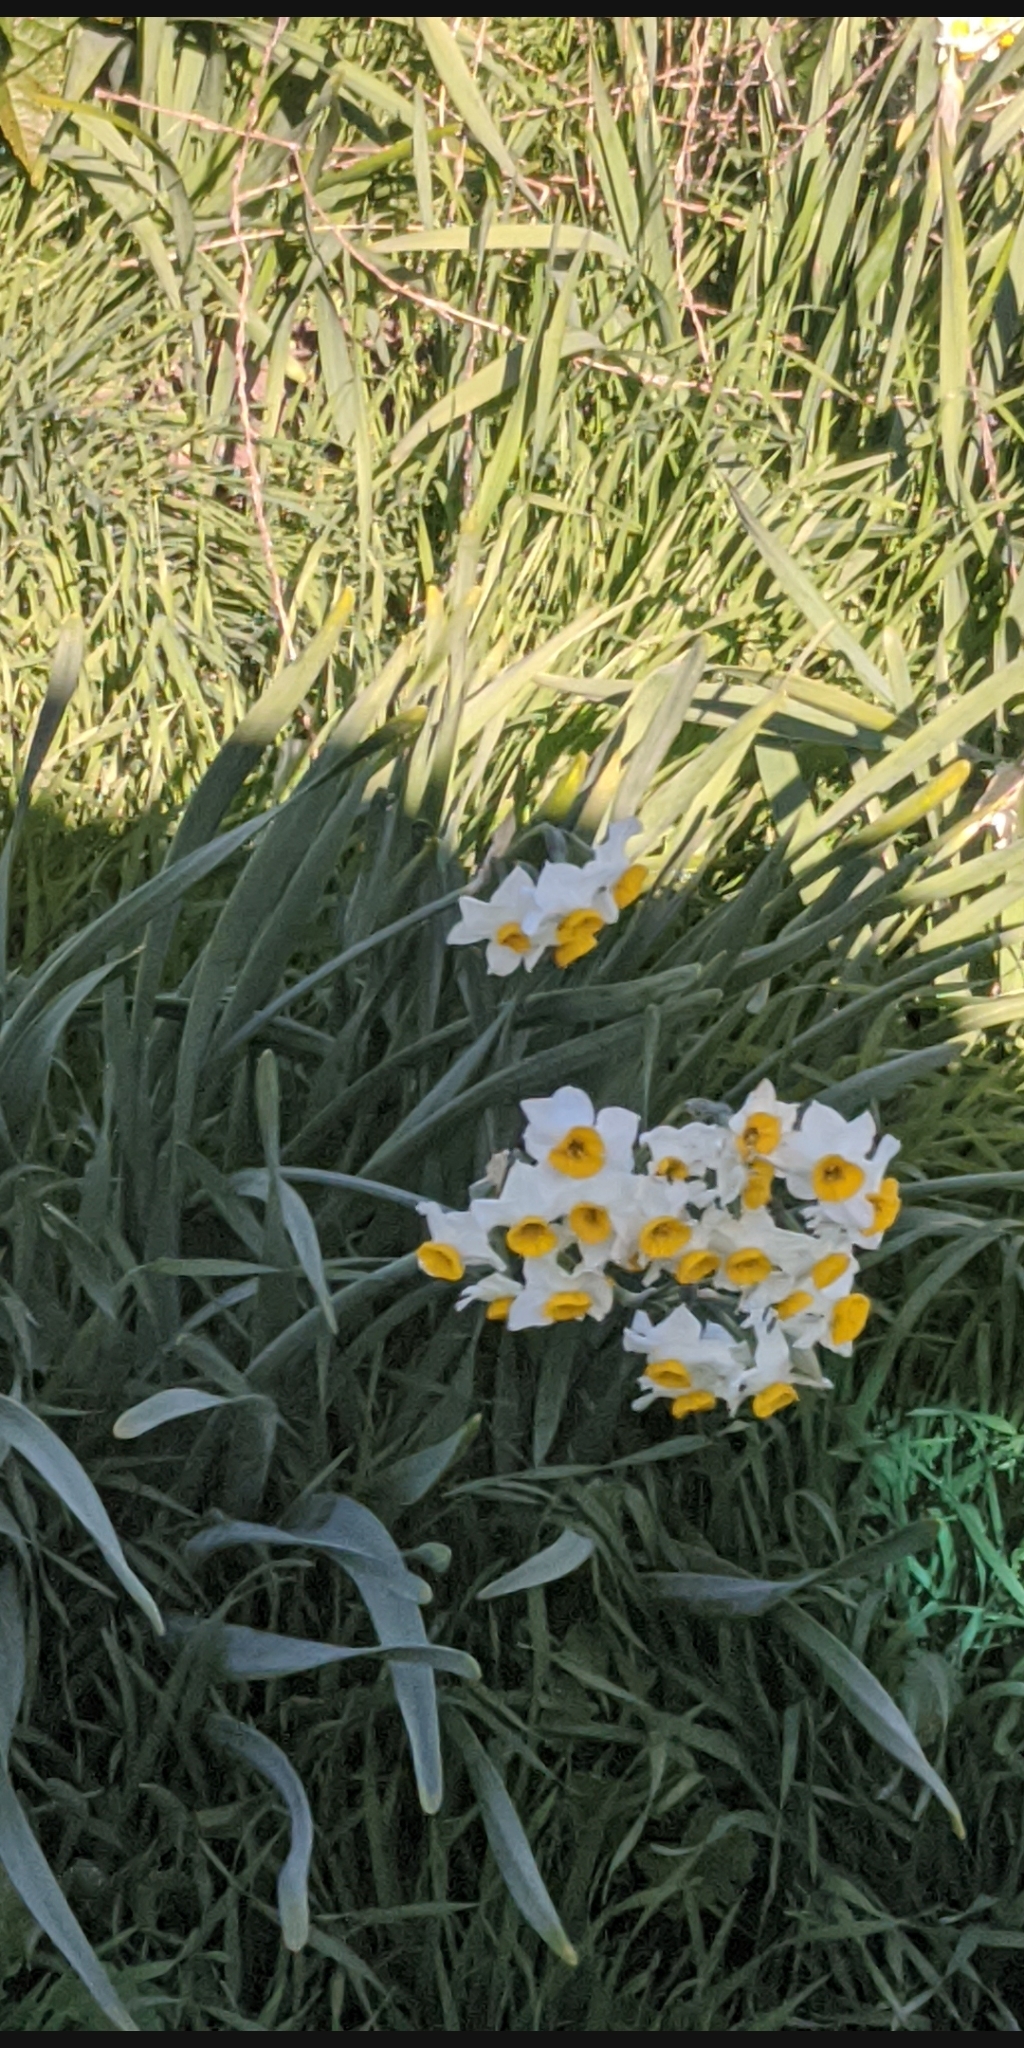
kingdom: Plantae
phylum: Tracheophyta
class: Liliopsida
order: Asparagales
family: Amaryllidaceae
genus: Narcissus
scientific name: Narcissus tazetta
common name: Bunch-flowered daffodil
